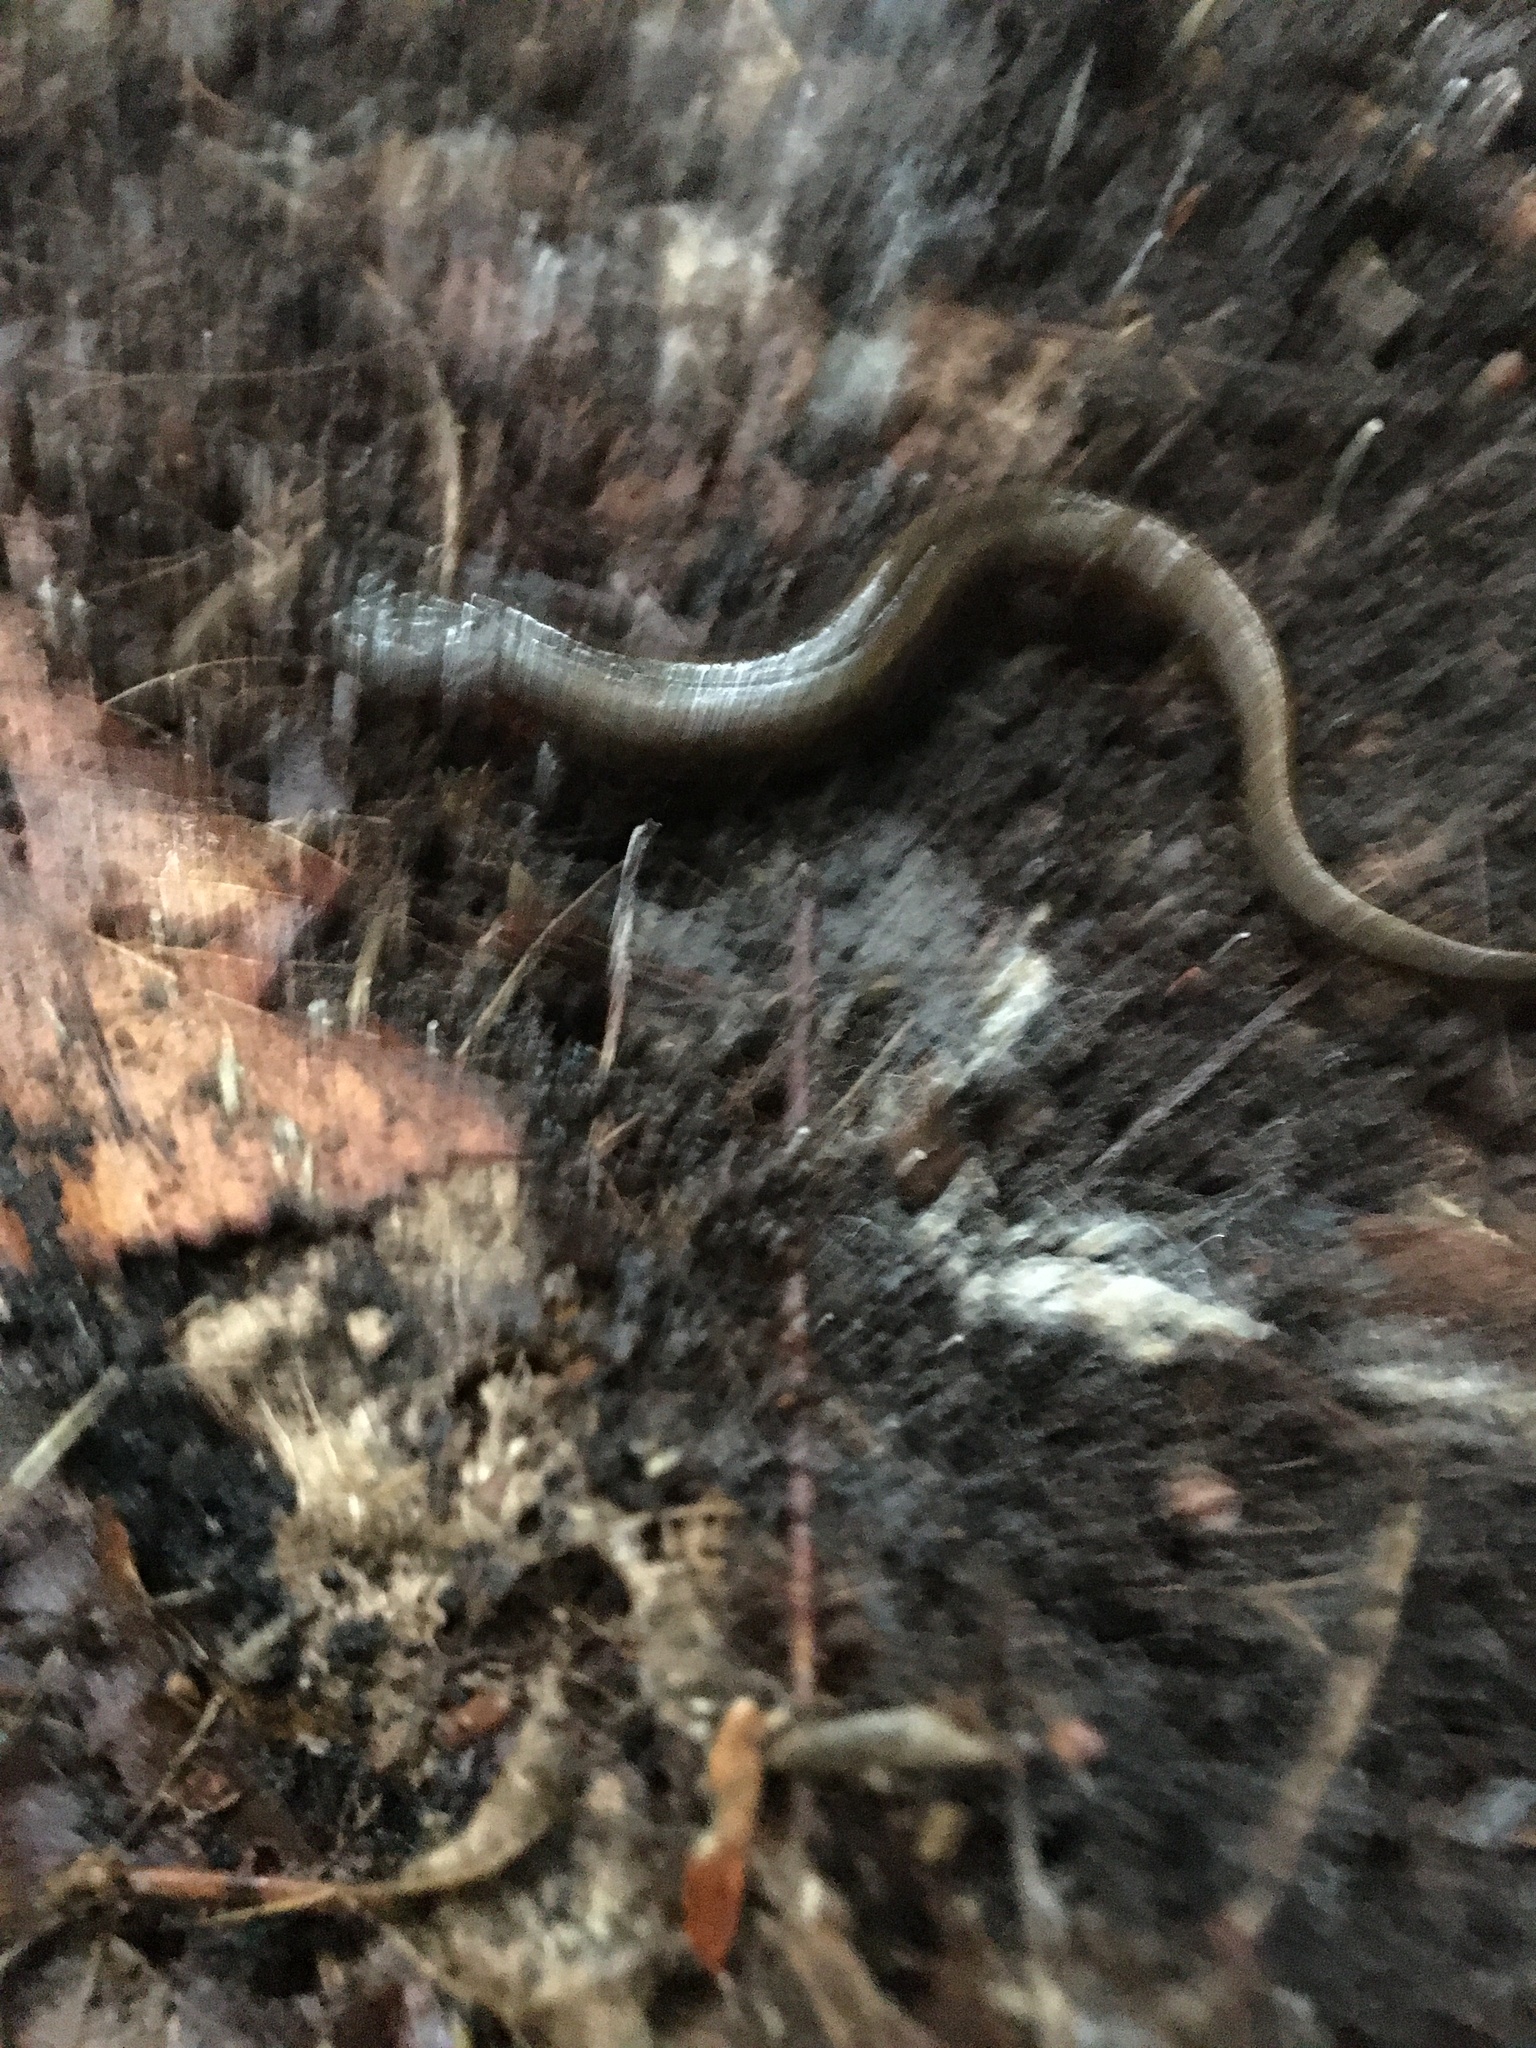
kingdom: Animalia
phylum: Chordata
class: Amphibia
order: Caudata
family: Plethodontidae
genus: Plethodon
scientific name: Plethodon cinereus
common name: Redback salamander
